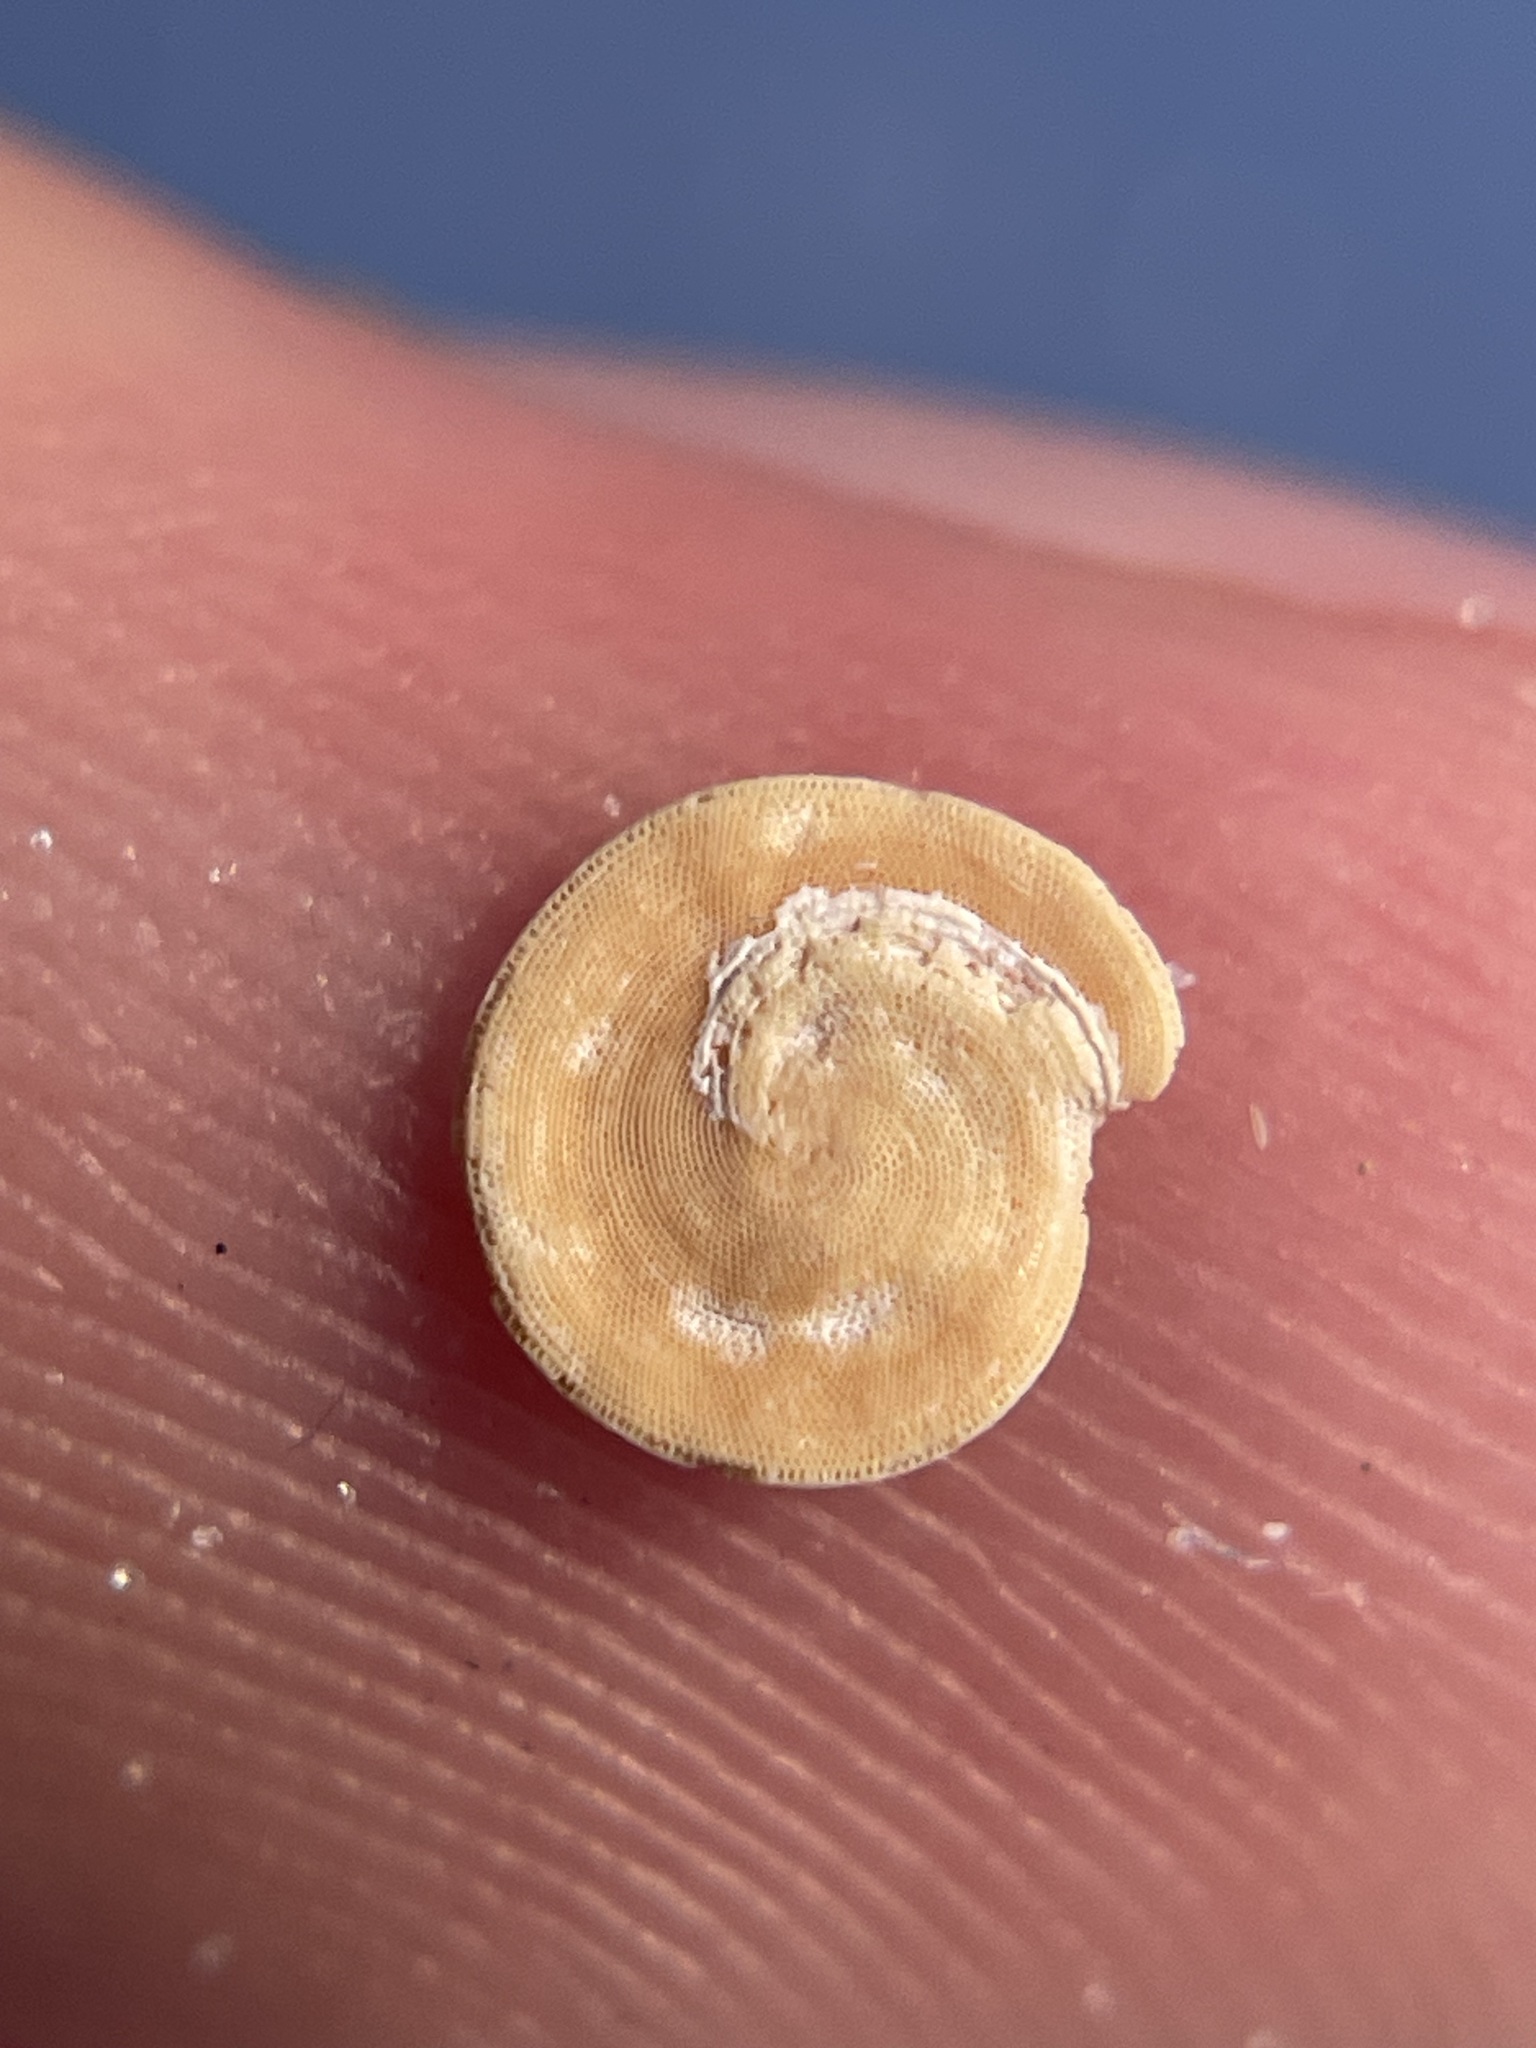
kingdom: Chromista
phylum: Foraminifera
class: Tubothalamea
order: Miliolida
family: Soritidae
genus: Archaias
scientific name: Archaias angulatus
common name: Turtle grass foram
